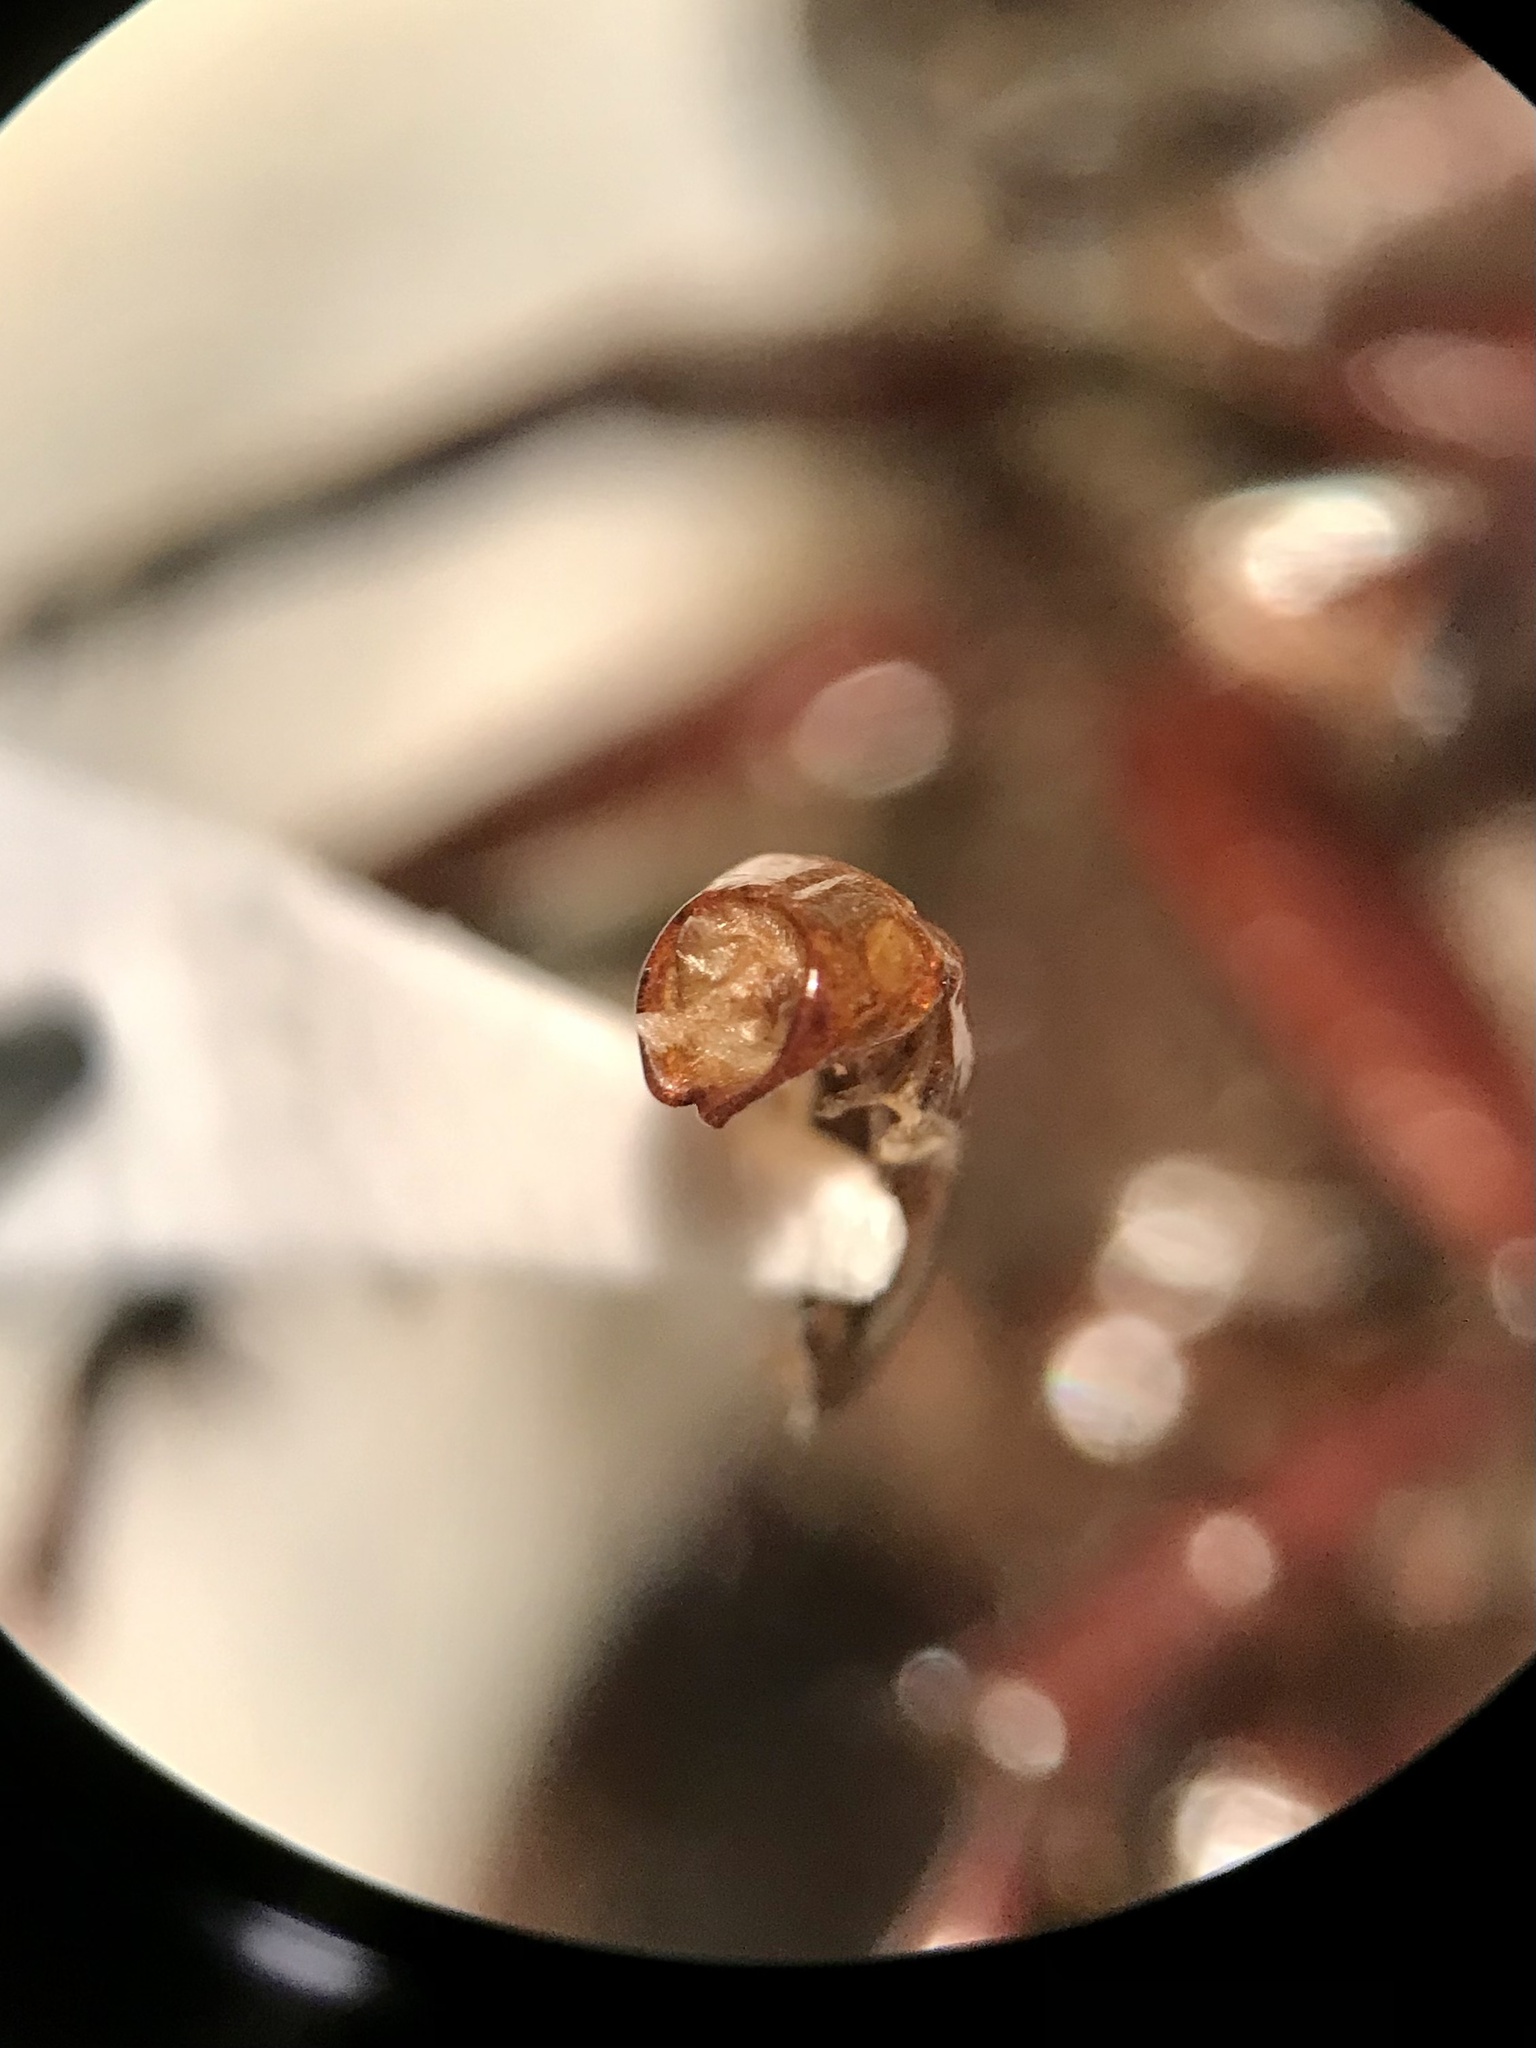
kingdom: Animalia
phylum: Arthropoda
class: Insecta
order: Coleoptera
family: Scarabaeidae
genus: Phyllophaga
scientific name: Phyllophaga crenulata
